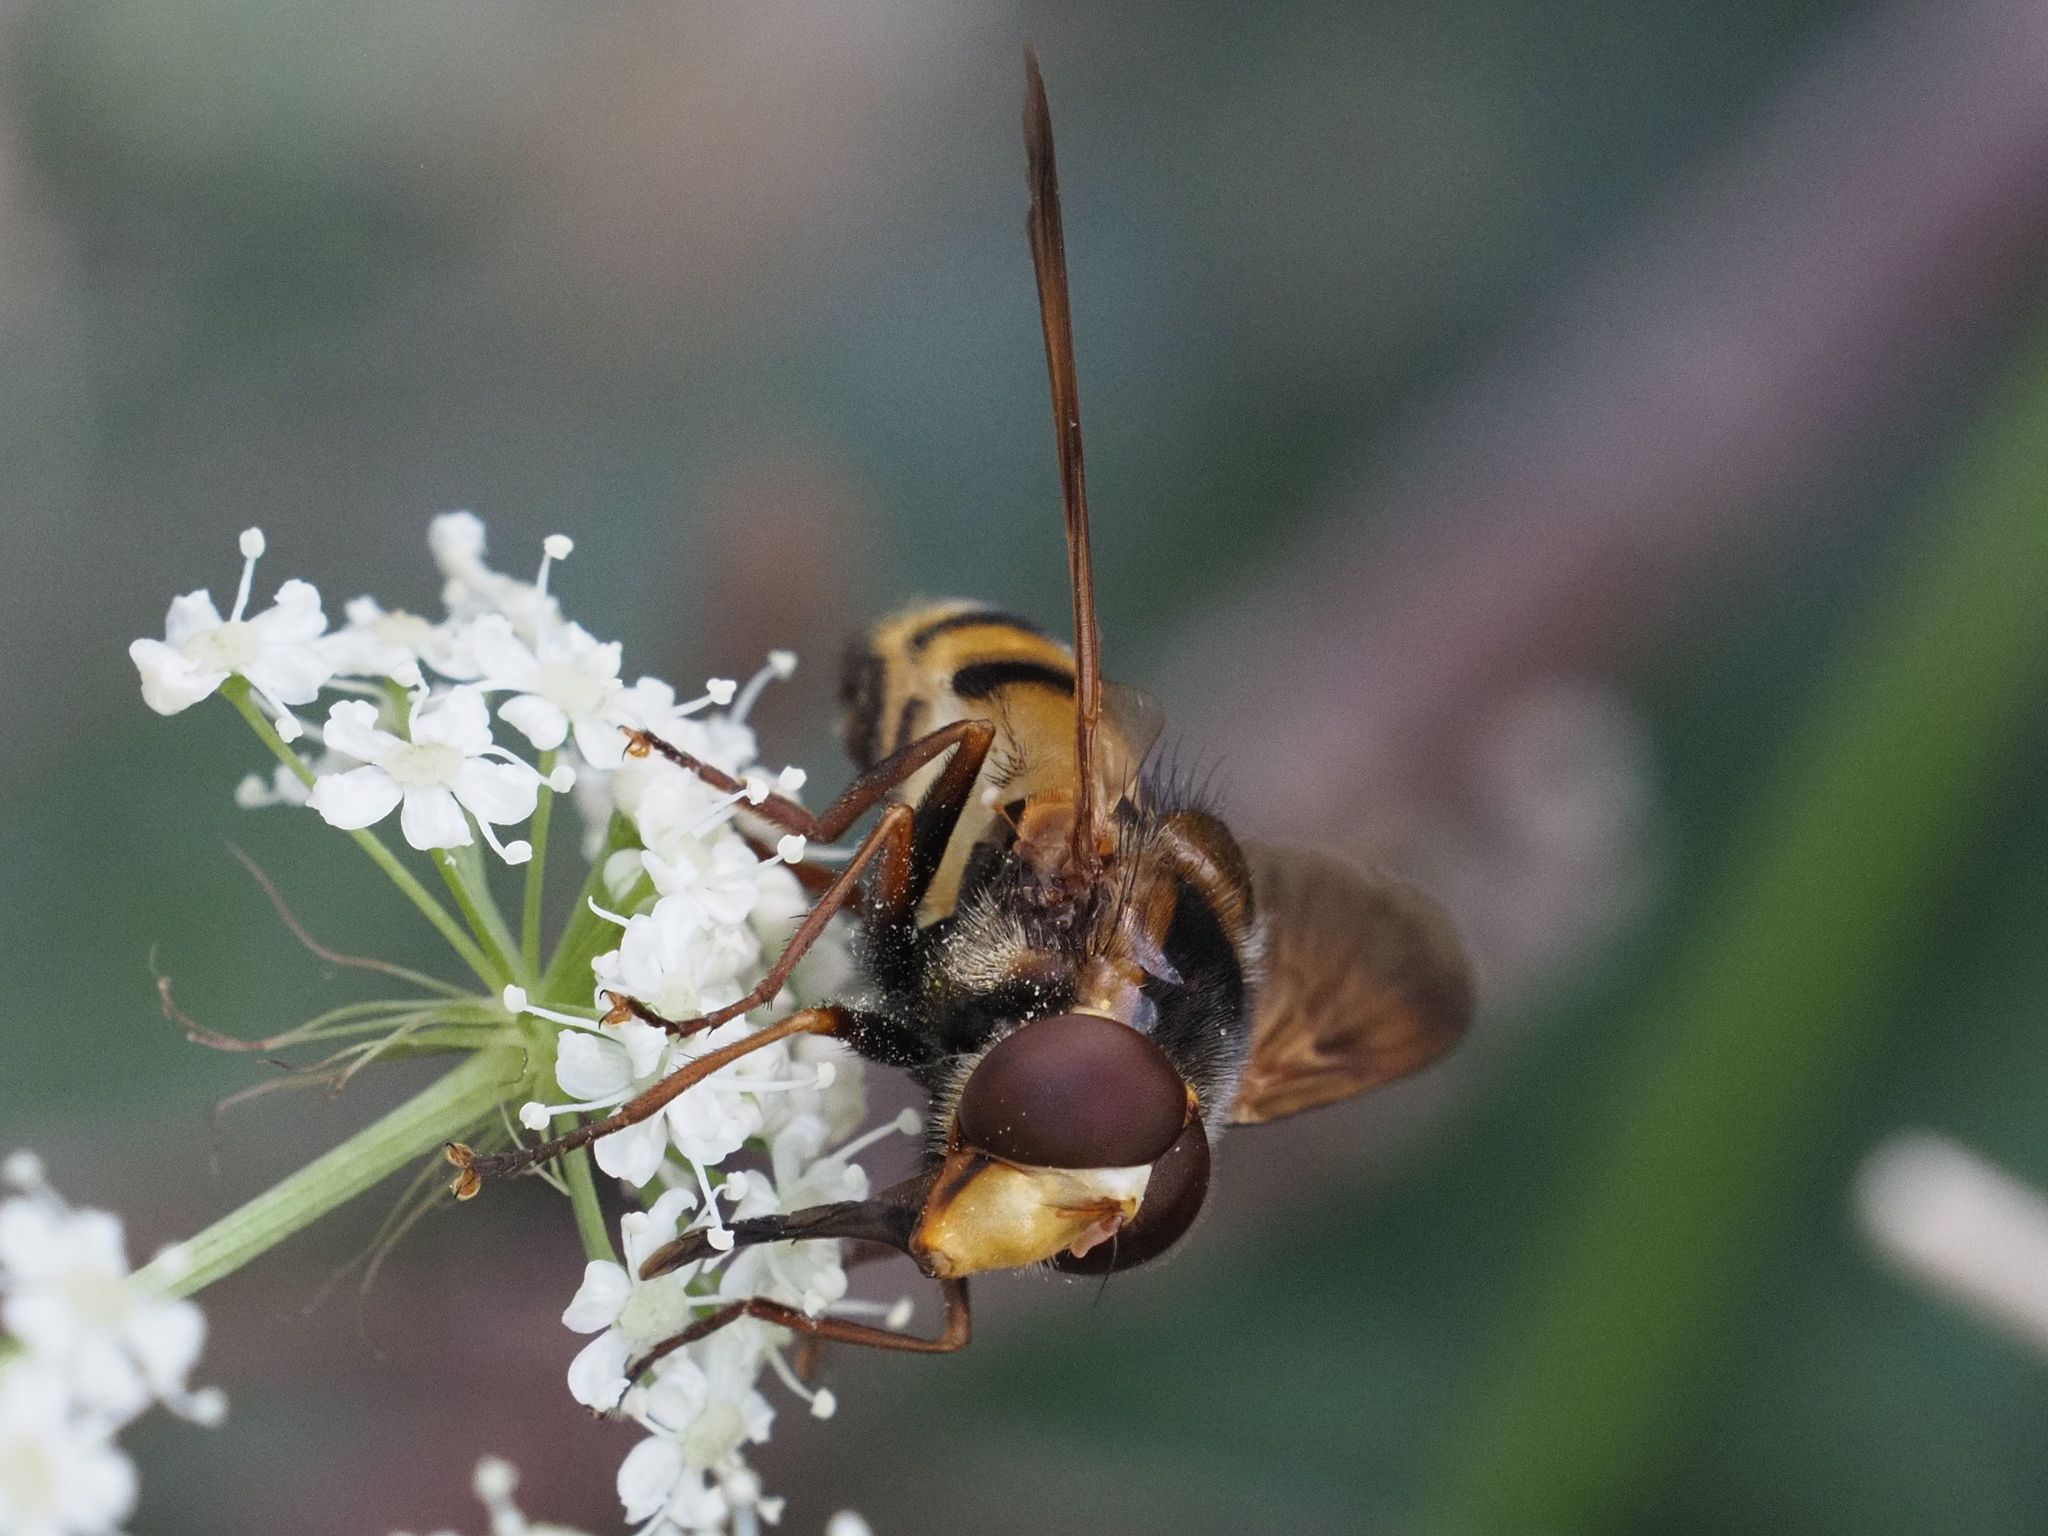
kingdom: Animalia
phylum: Arthropoda
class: Insecta
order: Diptera
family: Syrphidae
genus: Volucella
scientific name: Volucella inanis
